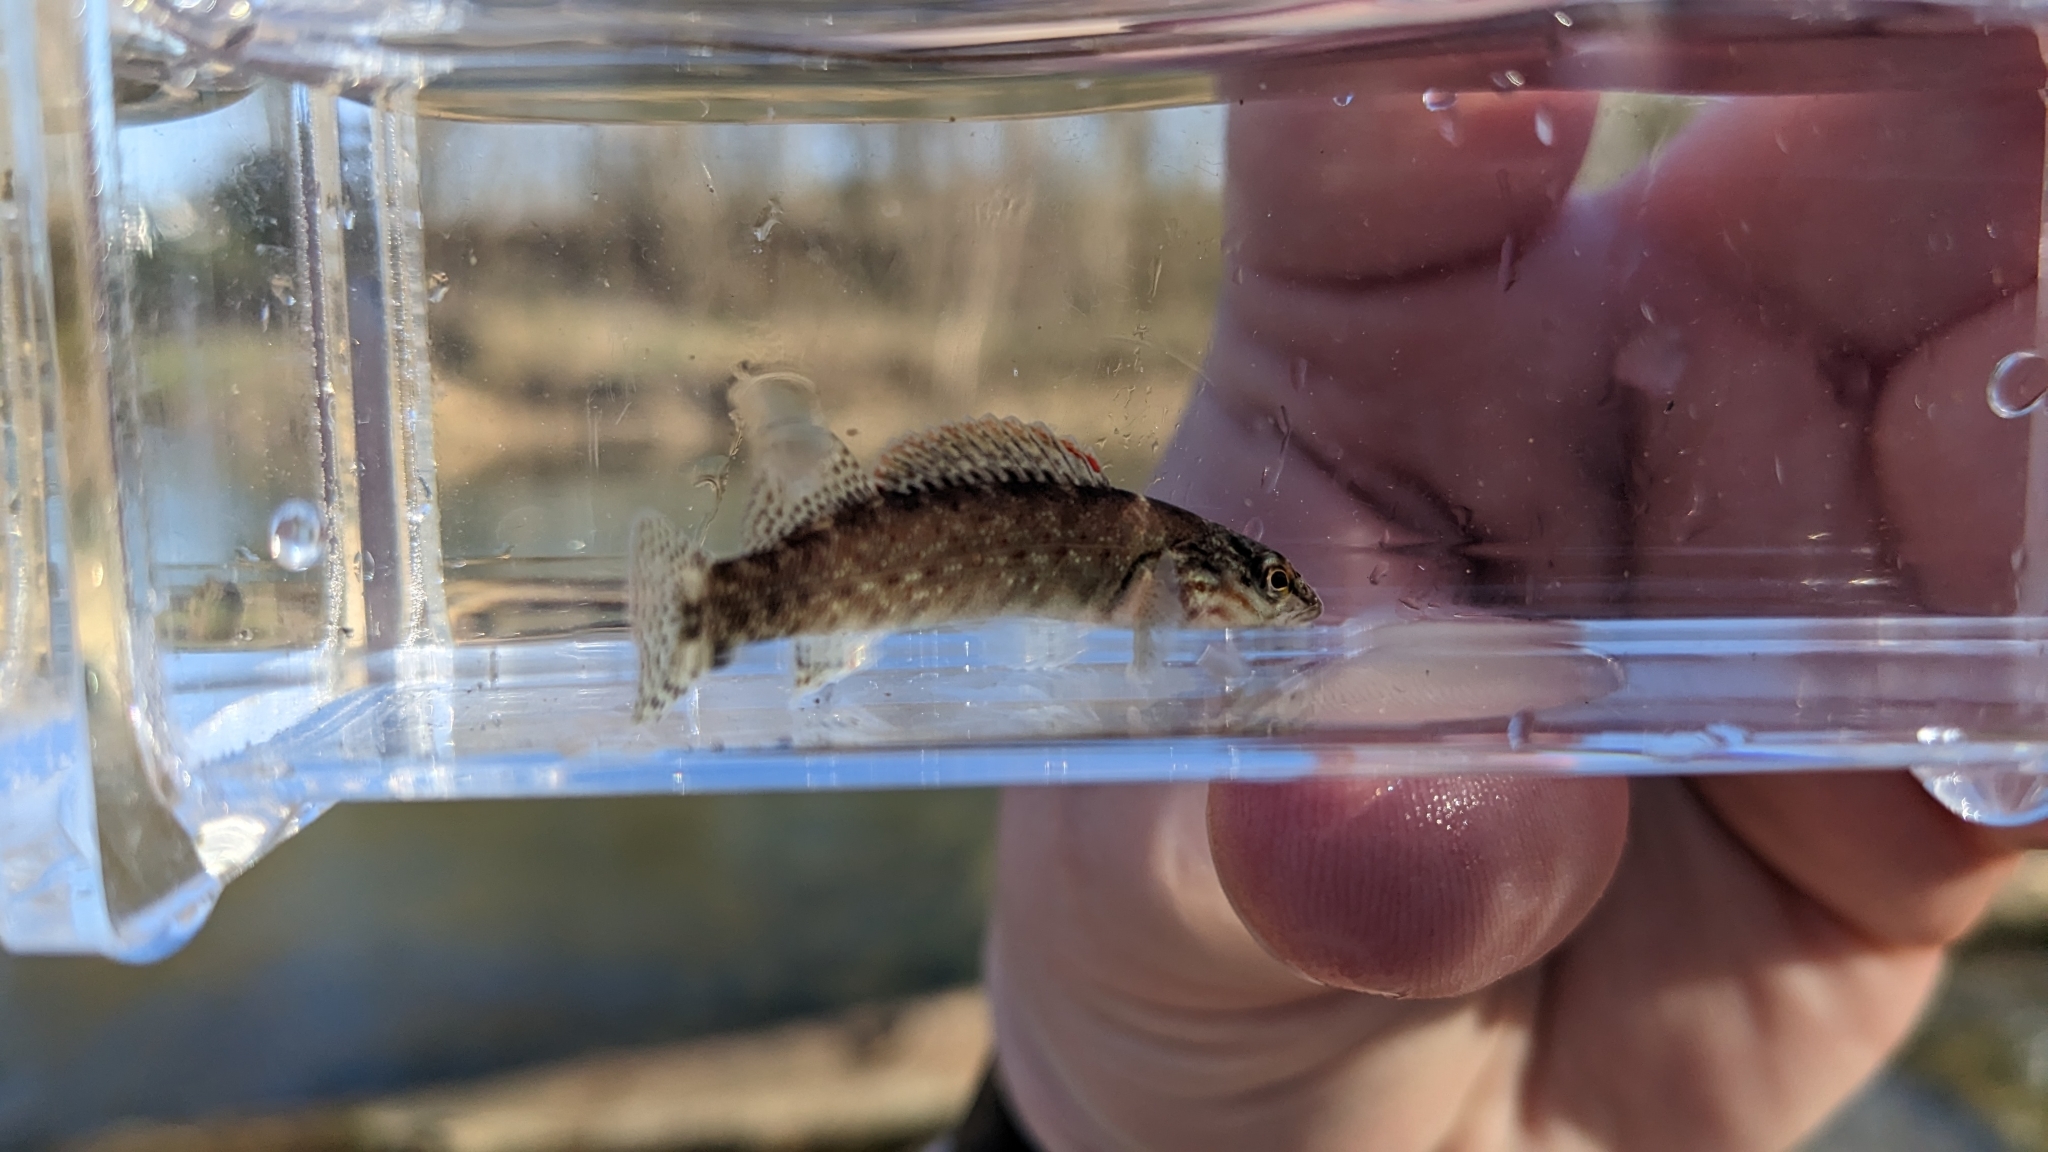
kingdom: Animalia
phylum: Chordata
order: Perciformes
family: Percidae
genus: Etheostoma
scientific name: Etheostoma rufilineatum
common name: Redline darter
